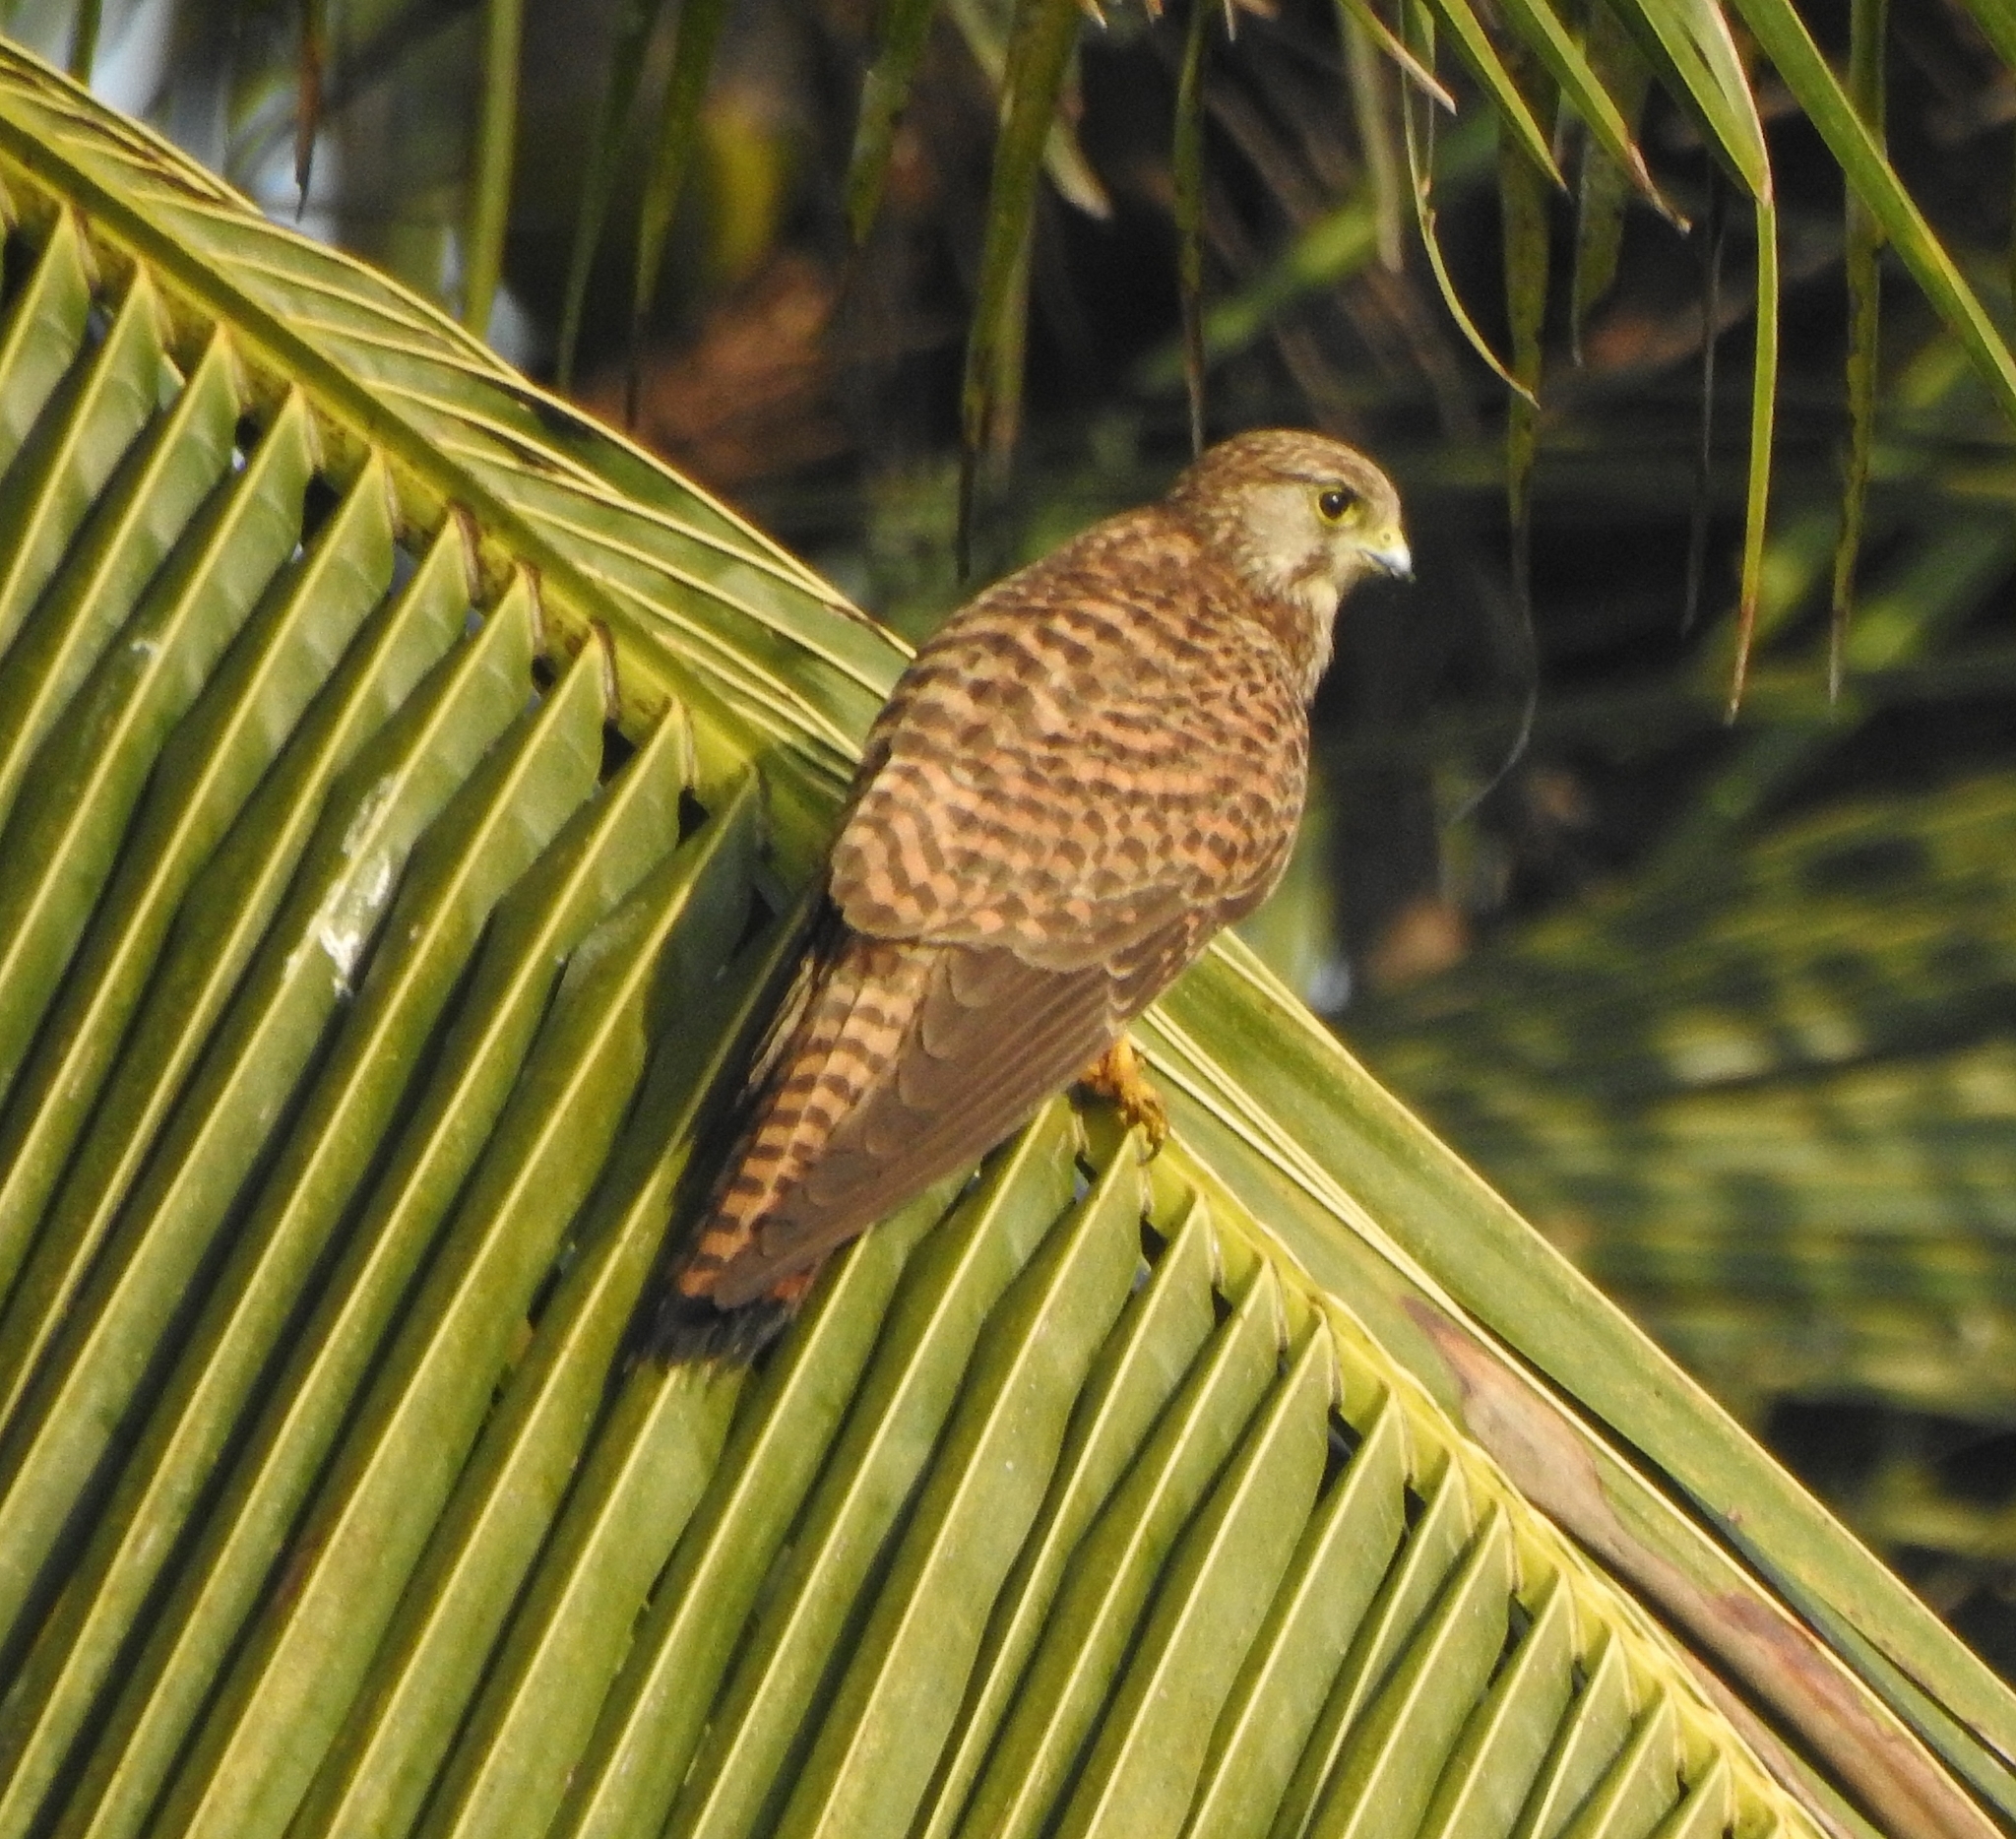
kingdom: Animalia
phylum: Chordata
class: Aves
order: Falconiformes
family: Falconidae
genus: Falco
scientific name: Falco tinnunculus
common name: Common kestrel
